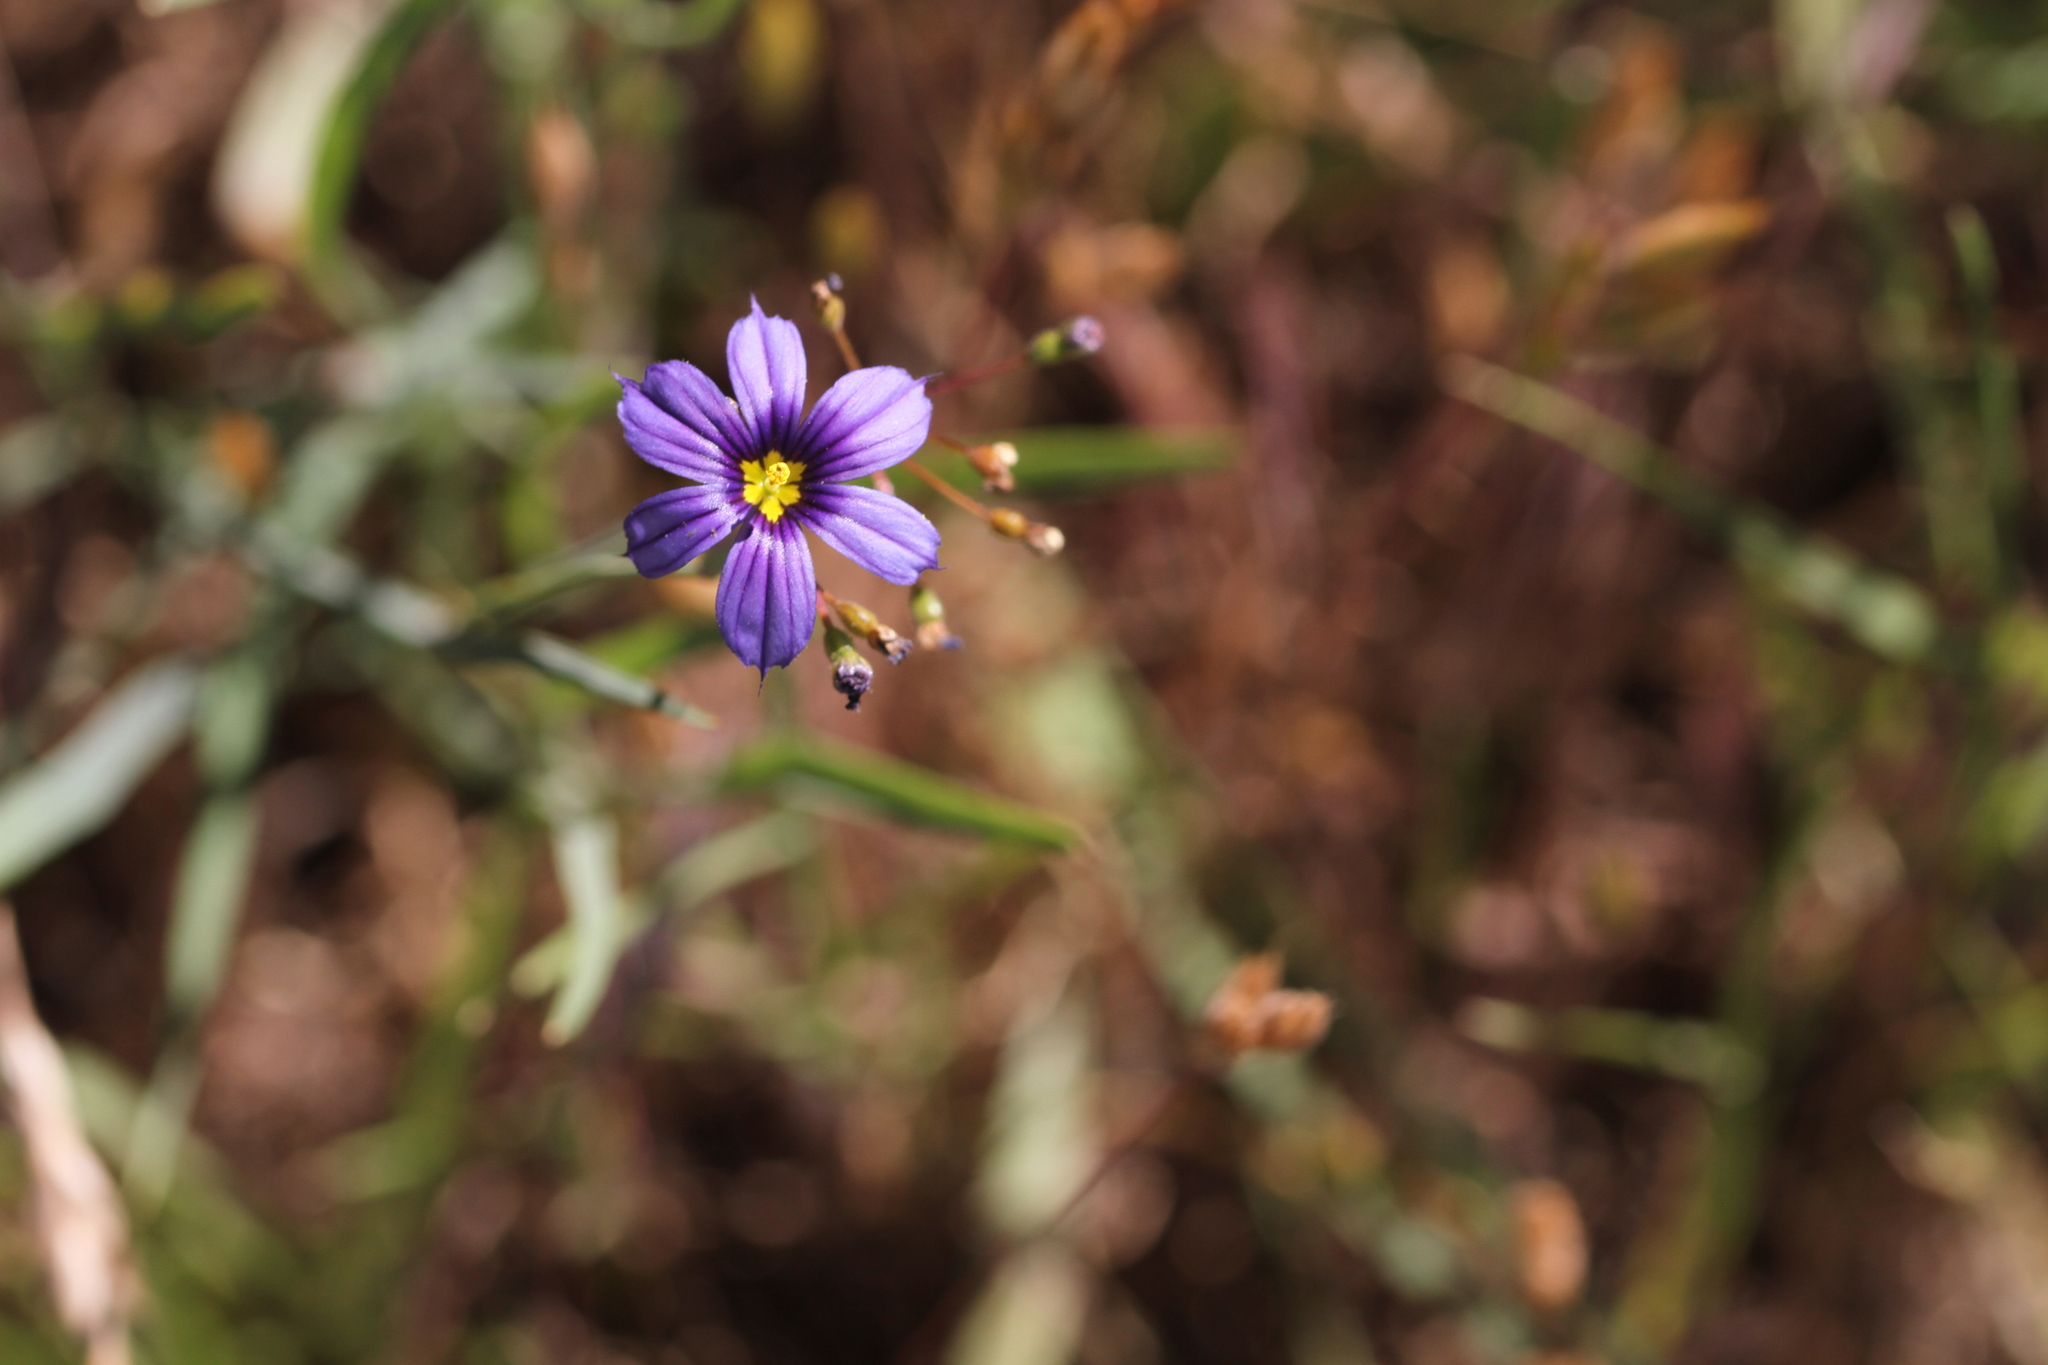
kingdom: Plantae
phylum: Tracheophyta
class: Liliopsida
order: Asparagales
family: Iridaceae
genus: Sisyrinchium
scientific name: Sisyrinchium bellum
